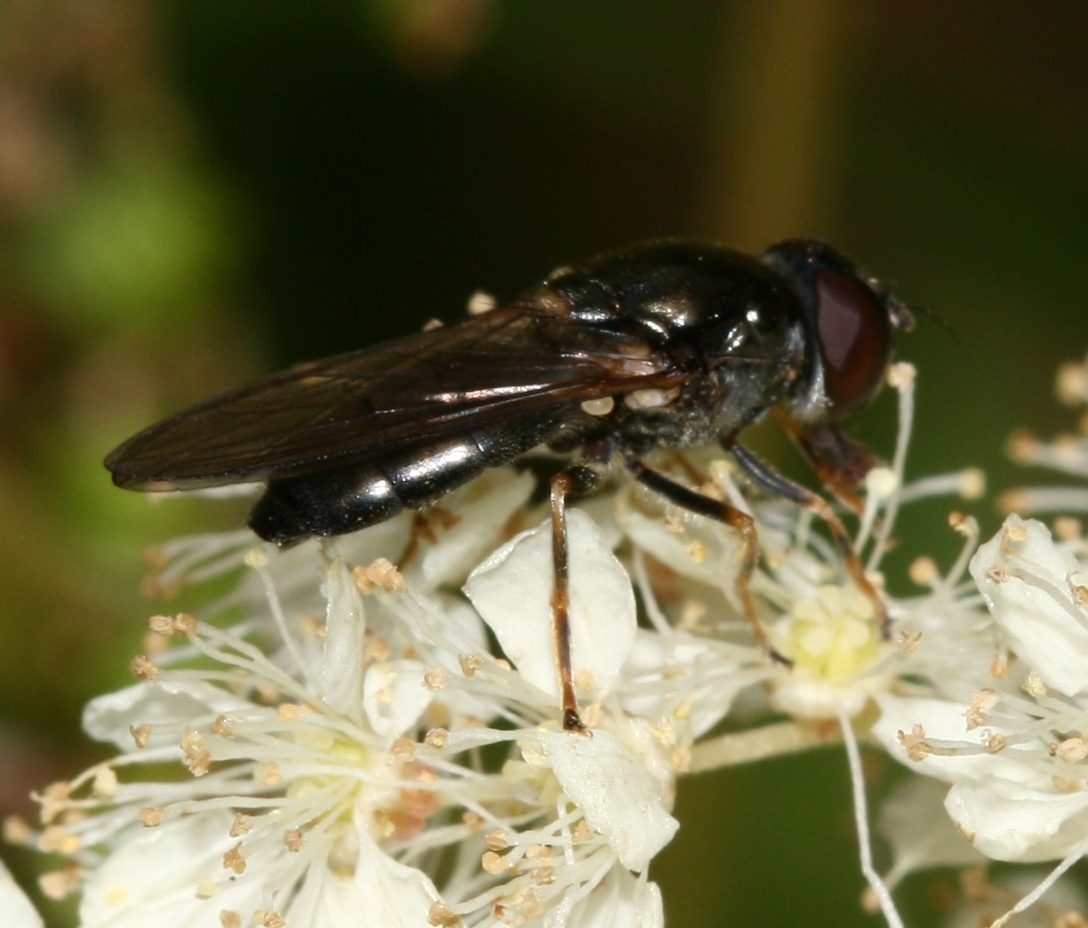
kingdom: Animalia
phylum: Arthropoda
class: Insecta
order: Diptera
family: Syrphidae
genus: Cheilosia
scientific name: Cheilosia scutellata
